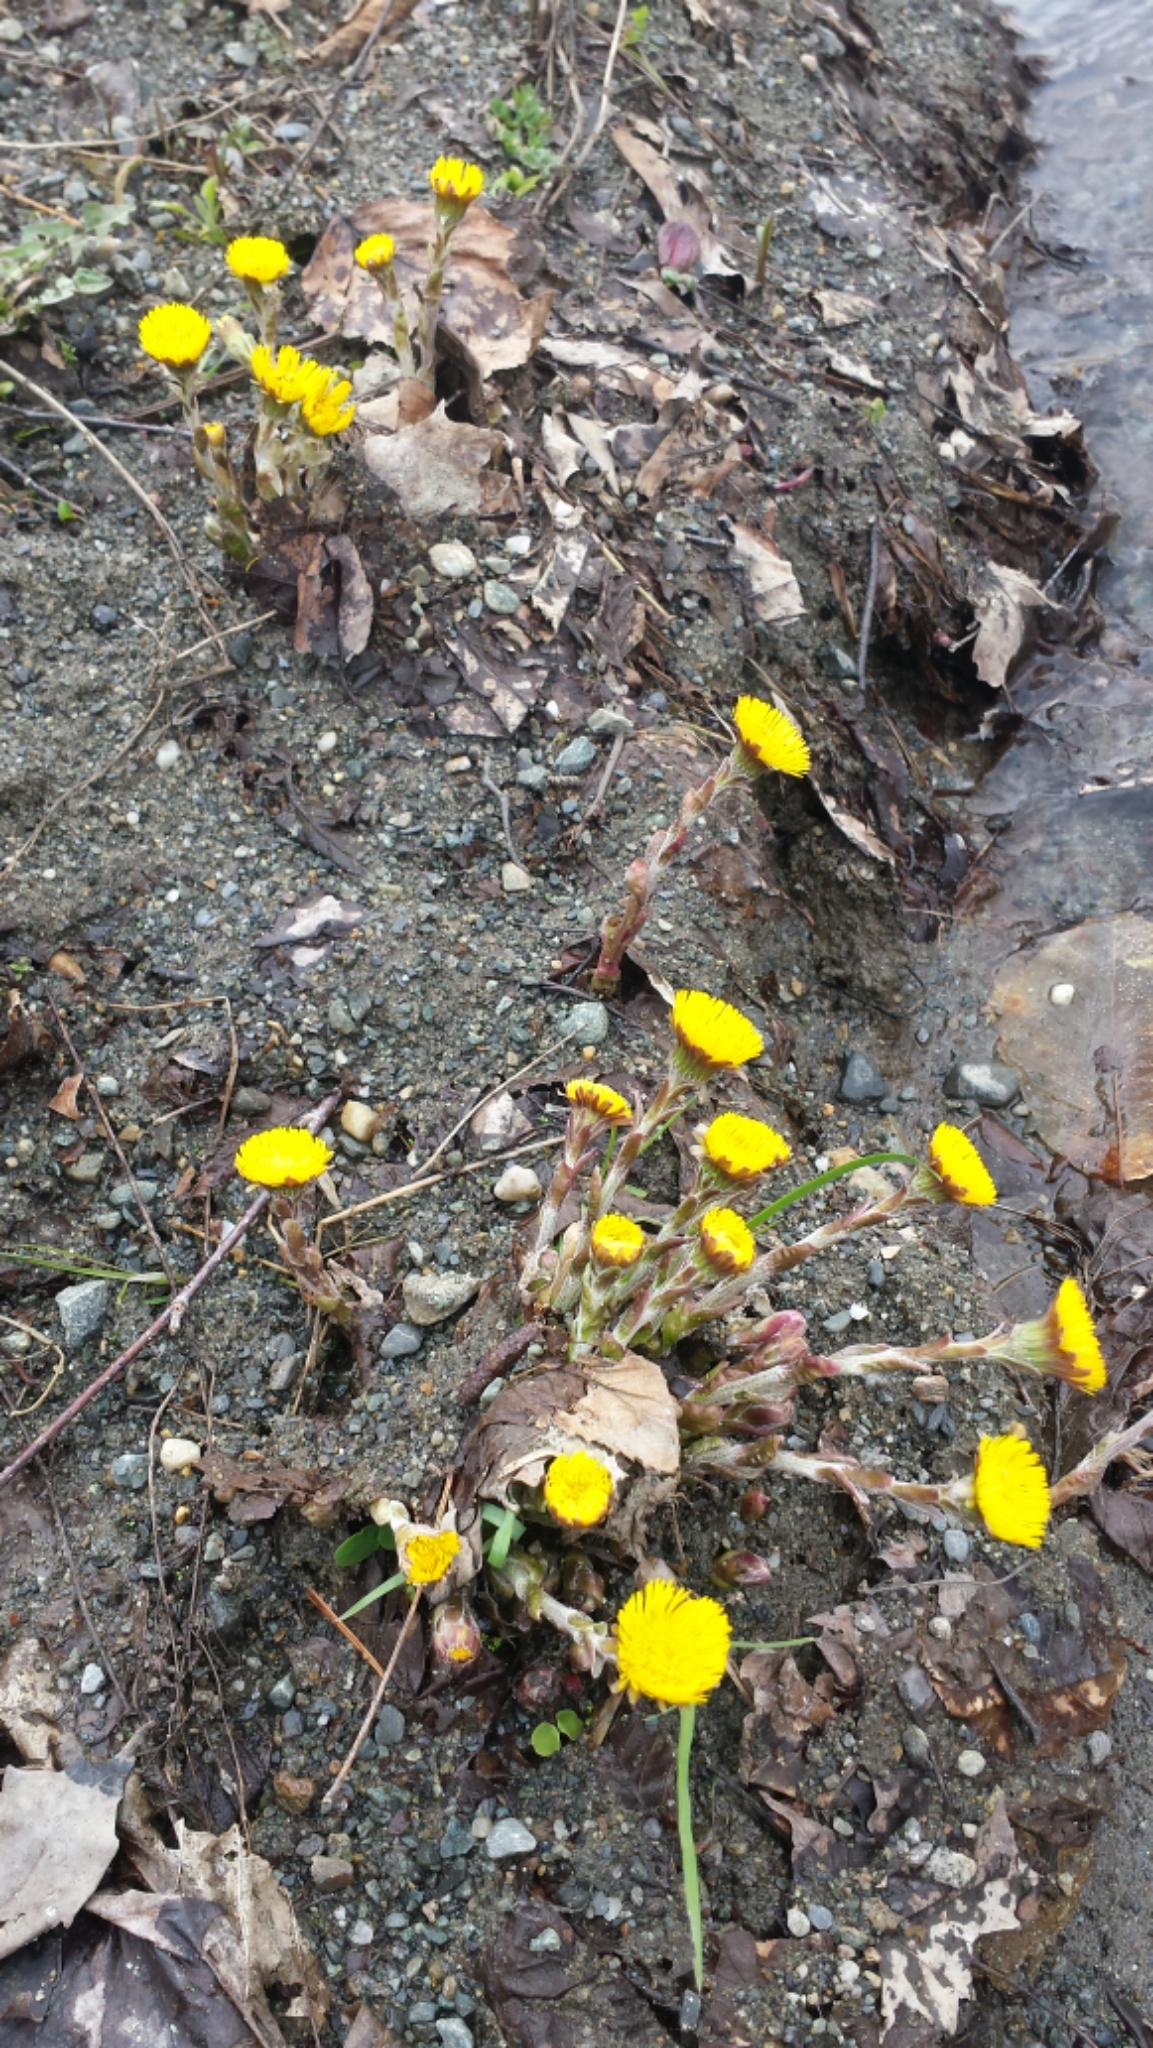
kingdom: Plantae
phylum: Tracheophyta
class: Magnoliopsida
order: Asterales
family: Asteraceae
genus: Tussilago
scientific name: Tussilago farfara
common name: Coltsfoot
